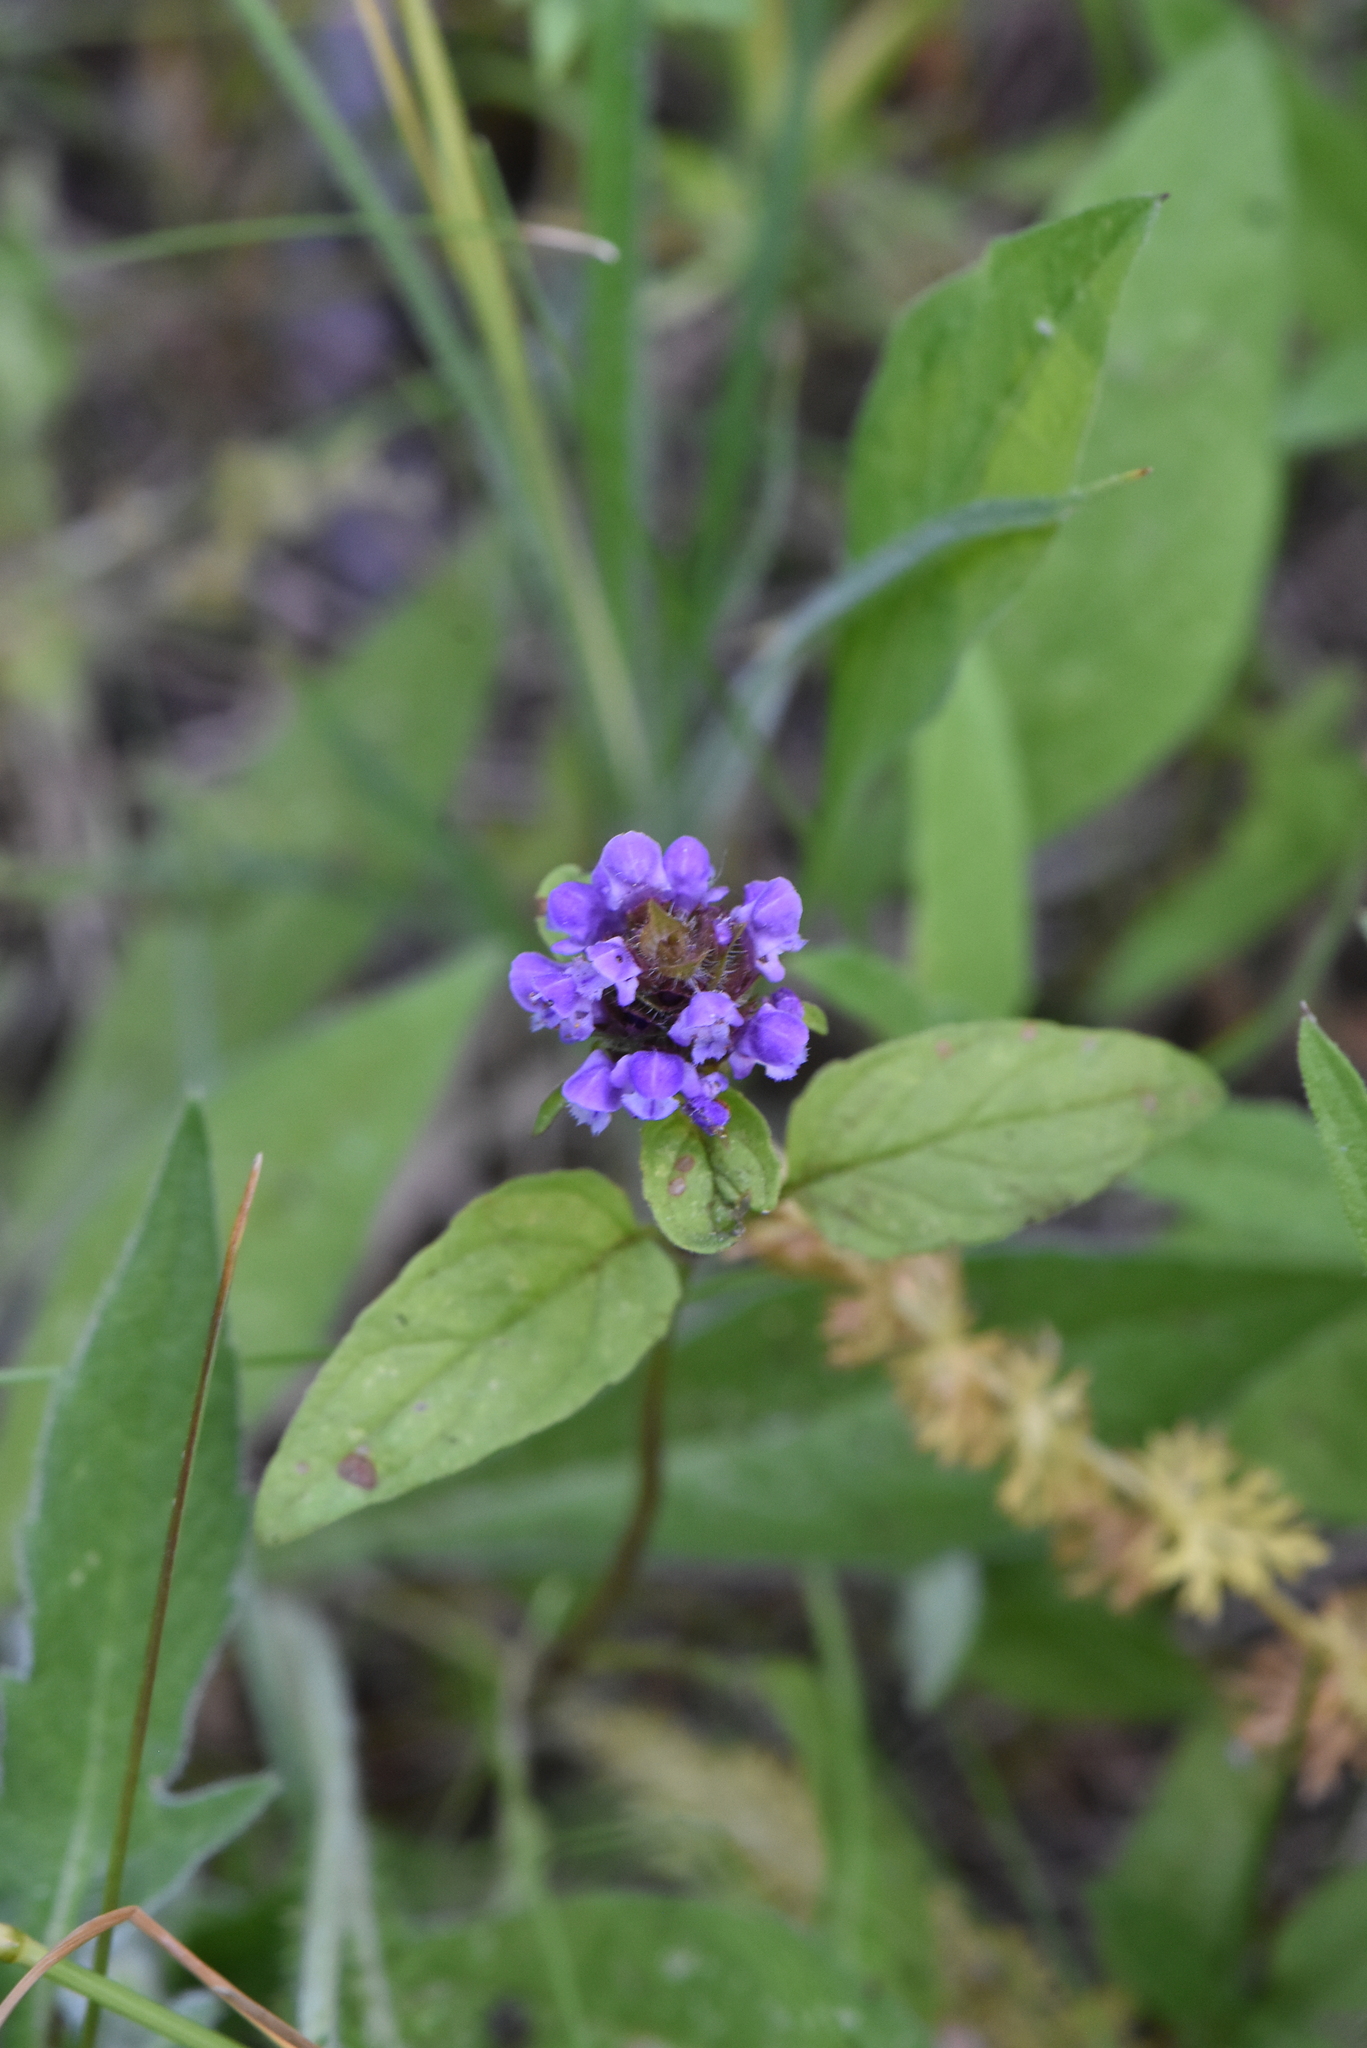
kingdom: Plantae
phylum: Tracheophyta
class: Magnoliopsida
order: Lamiales
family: Lamiaceae
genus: Prunella
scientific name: Prunella vulgaris
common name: Heal-all
